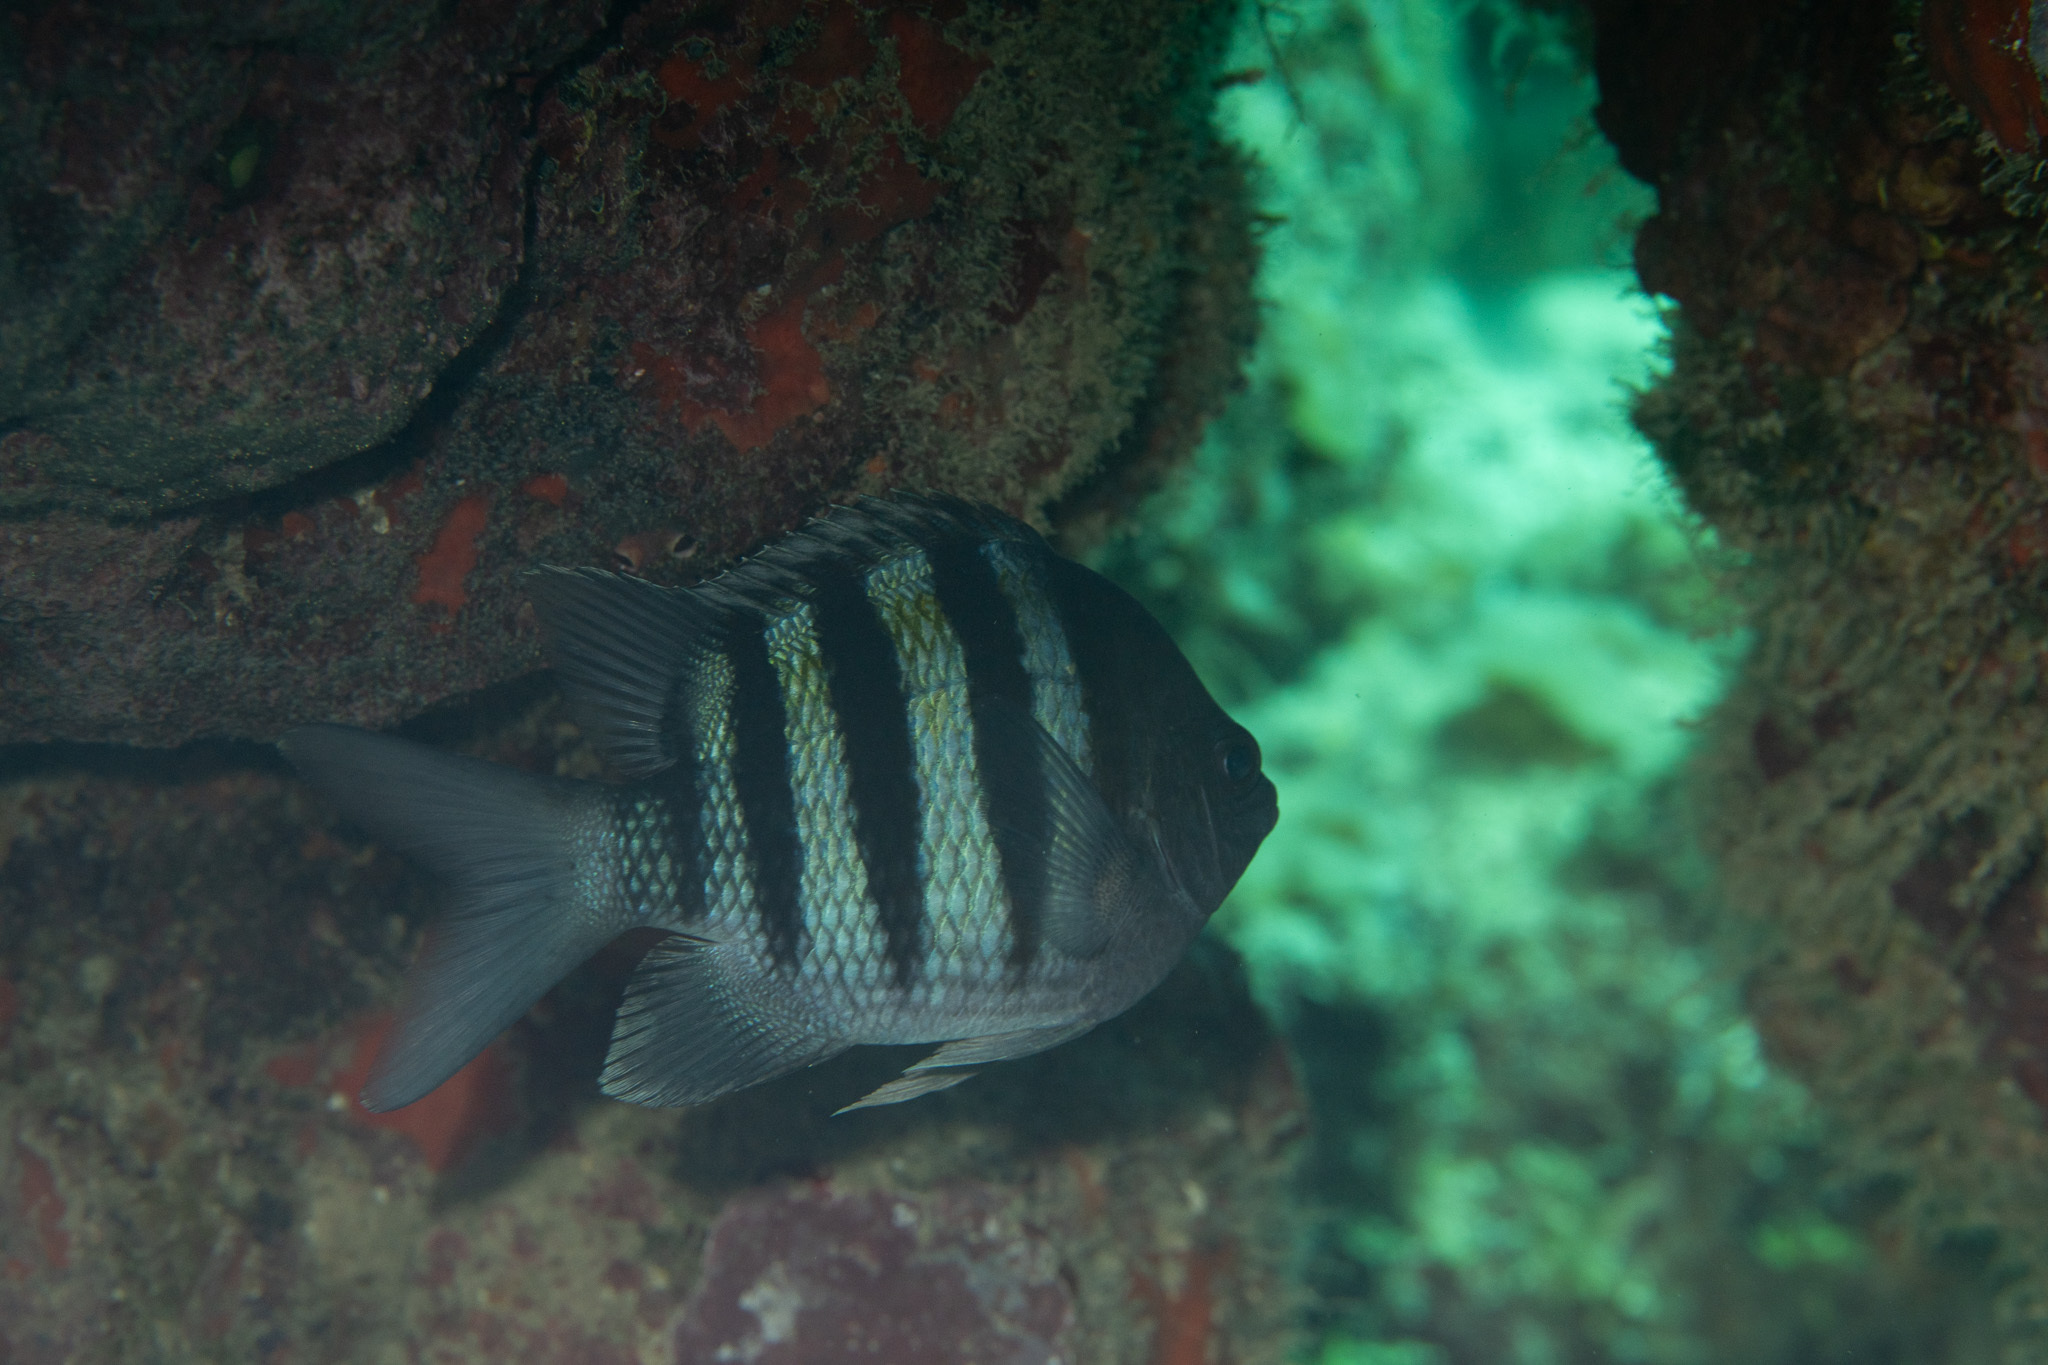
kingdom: Animalia
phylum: Chordata
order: Perciformes
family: Pomacentridae
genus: Abudefduf
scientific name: Abudefduf saxatilis
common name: Sergeant major
